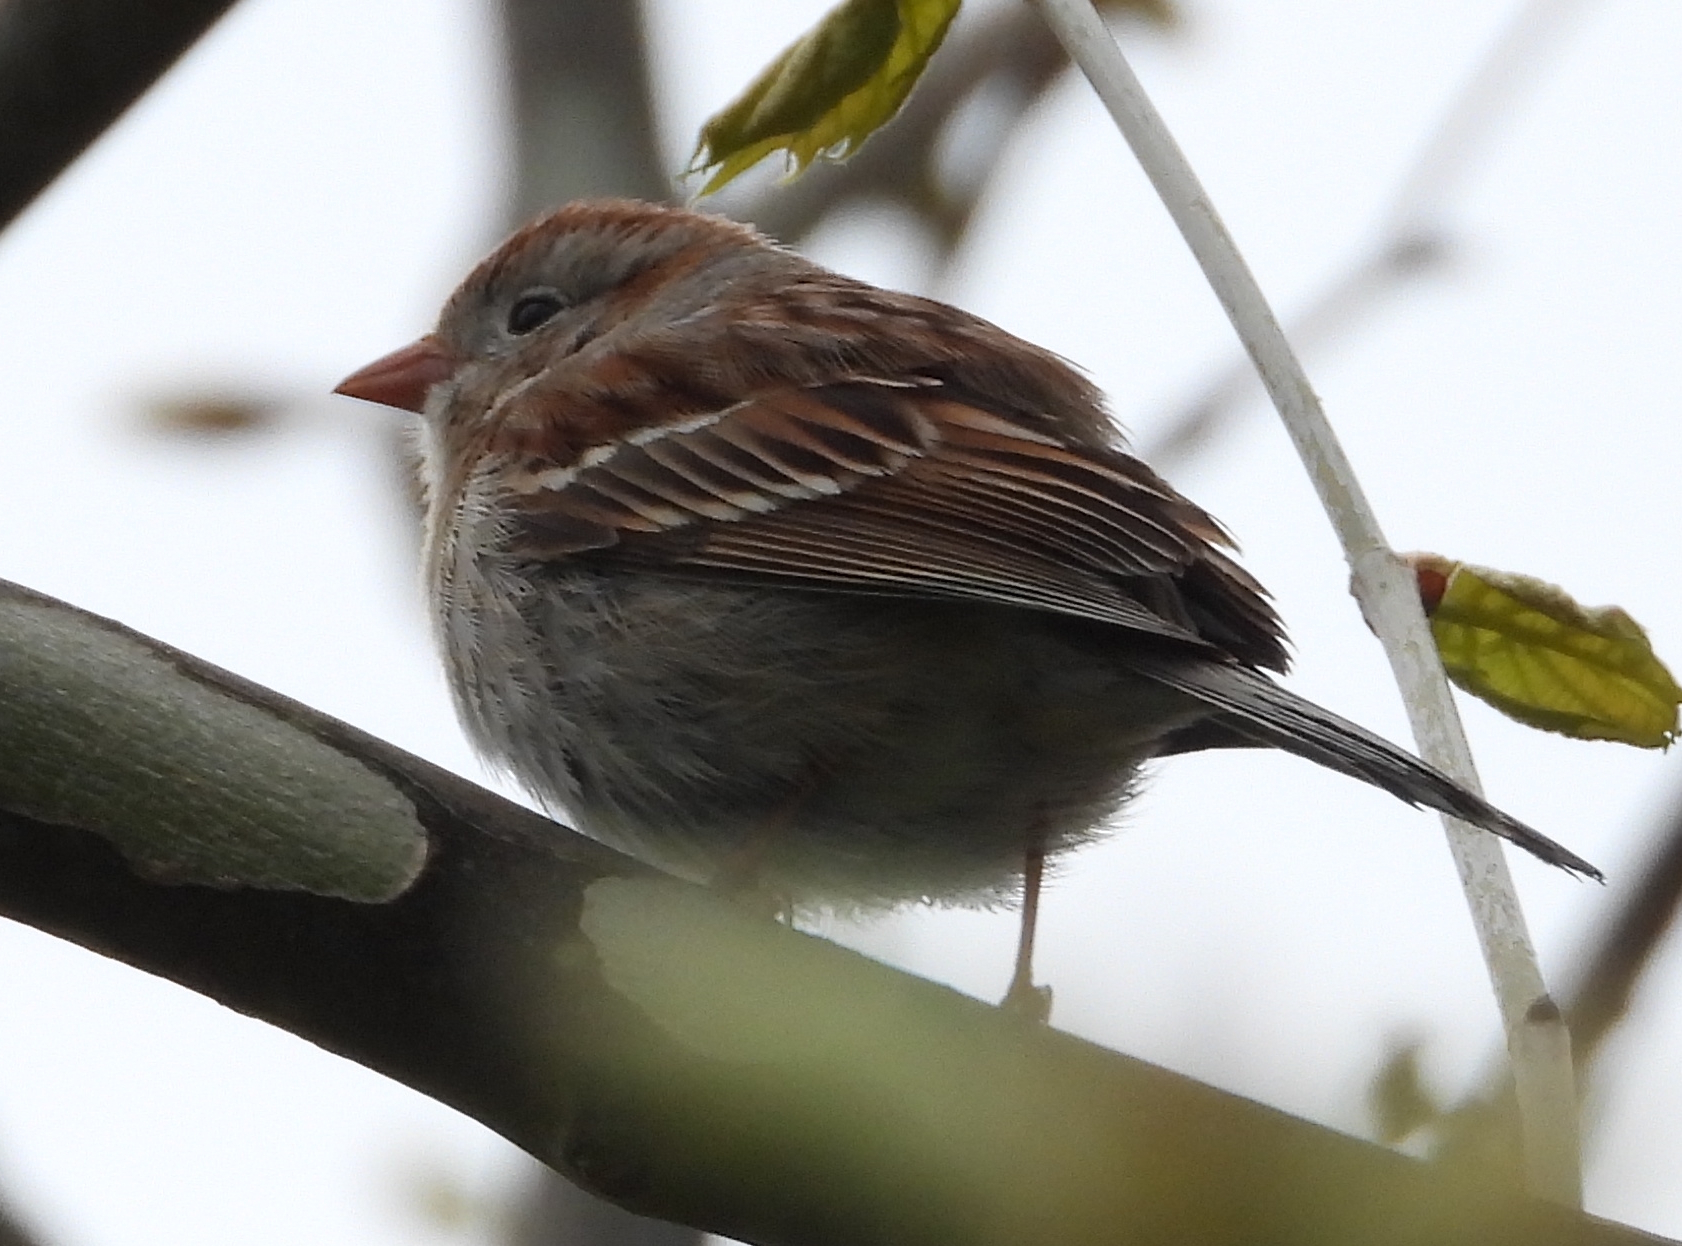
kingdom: Animalia
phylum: Chordata
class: Aves
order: Passeriformes
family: Passerellidae
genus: Spizella
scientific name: Spizella pusilla
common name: Field sparrow
